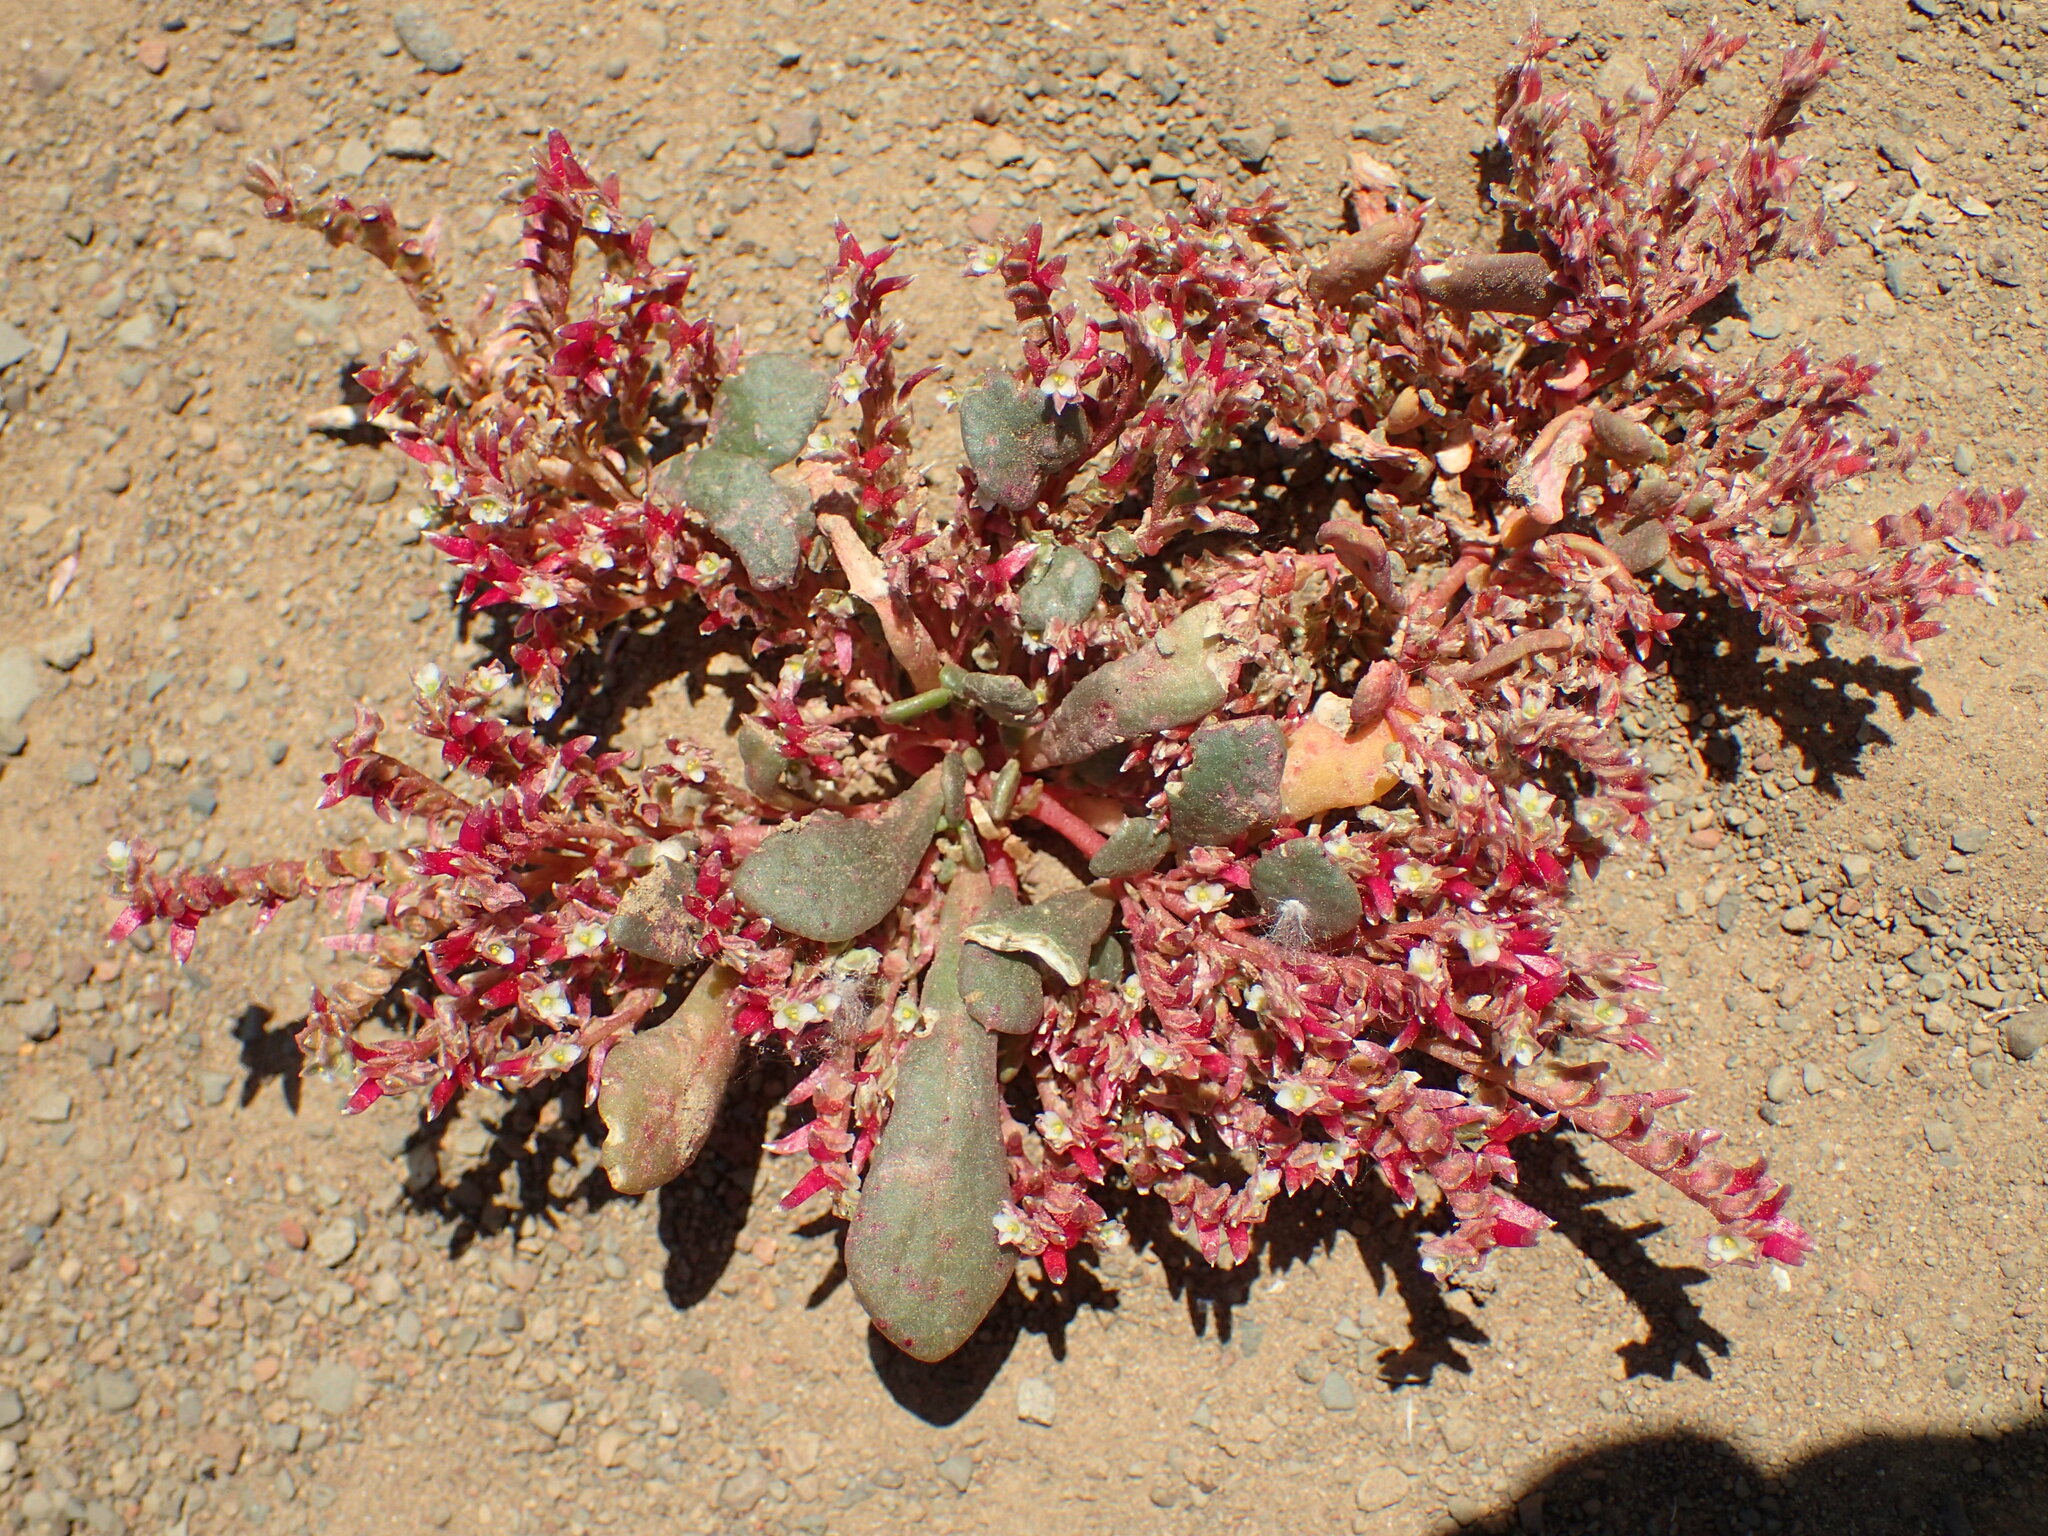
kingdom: Plantae
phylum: Tracheophyta
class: Magnoliopsida
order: Caryophyllales
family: Montiaceae
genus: Calyptridium
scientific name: Calyptridium monandrum
